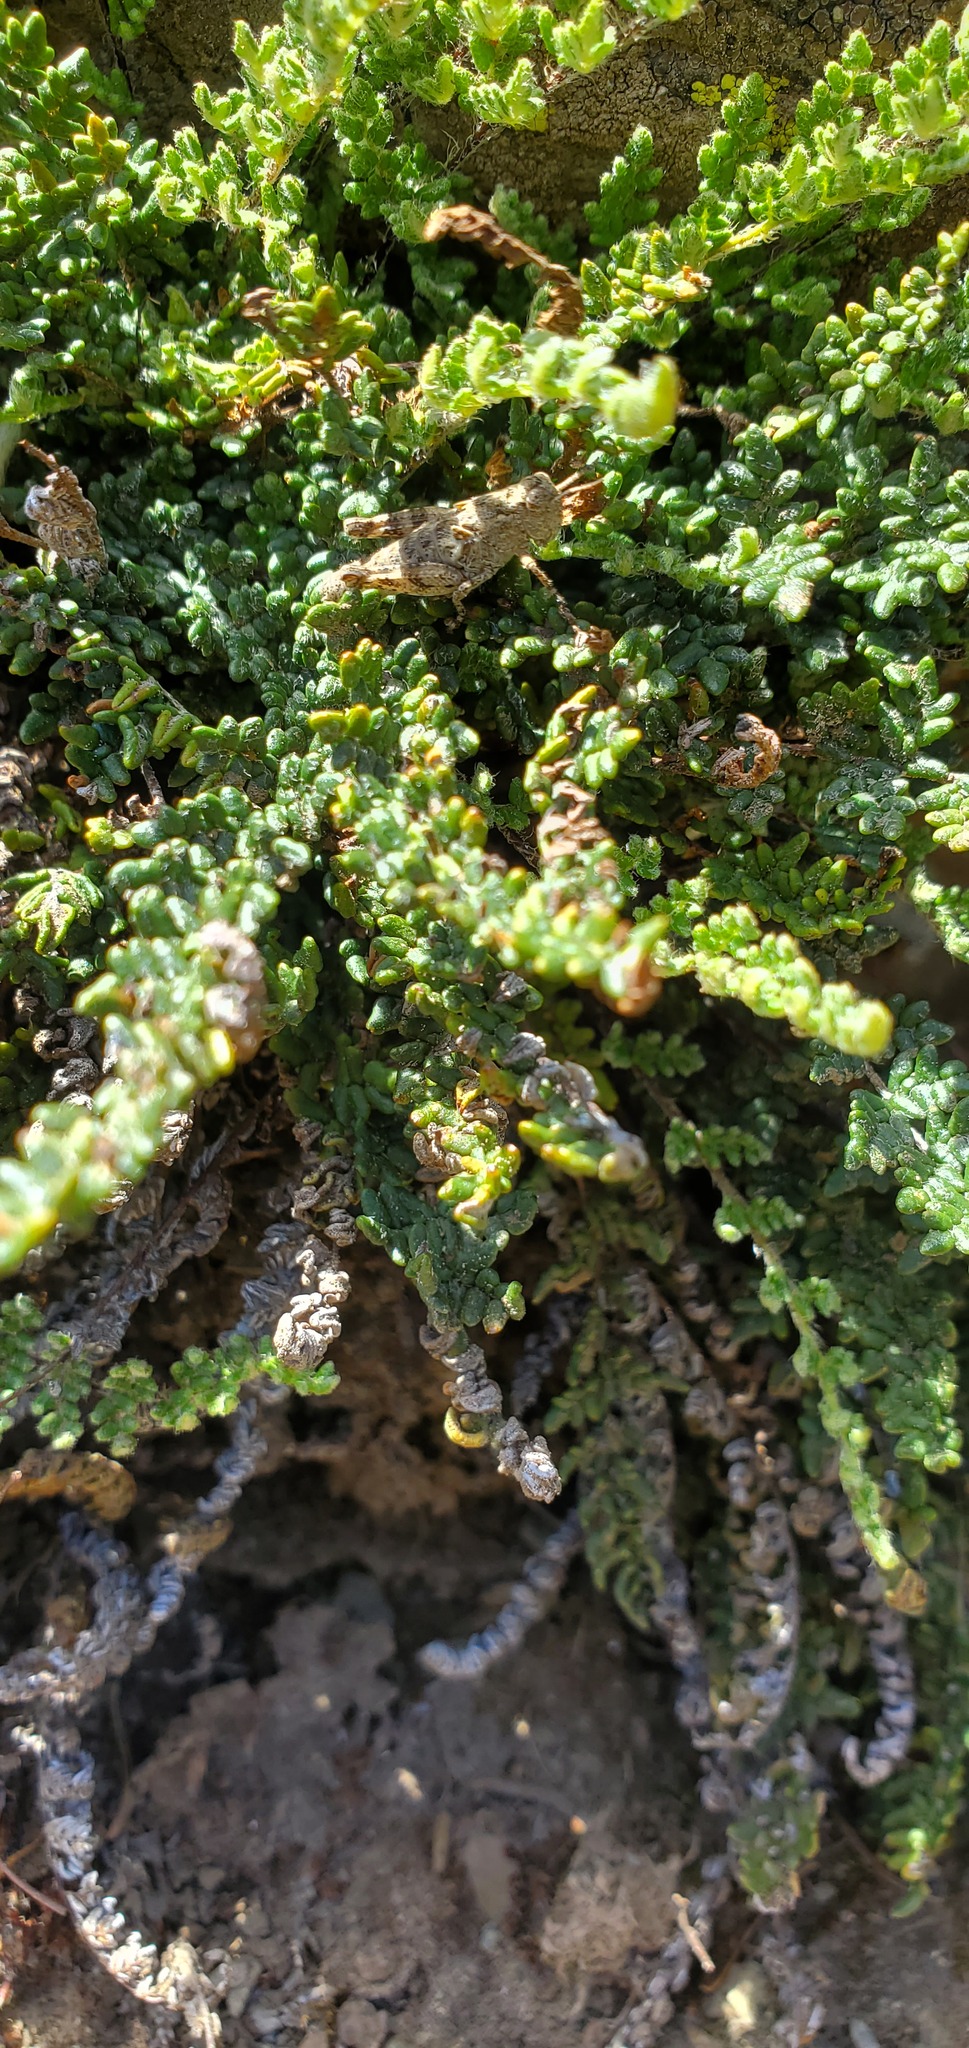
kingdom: Plantae
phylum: Tracheophyta
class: Polypodiopsida
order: Polypodiales
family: Pteridaceae
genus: Myriopteris
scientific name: Myriopteris gracillima
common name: Lace fern
